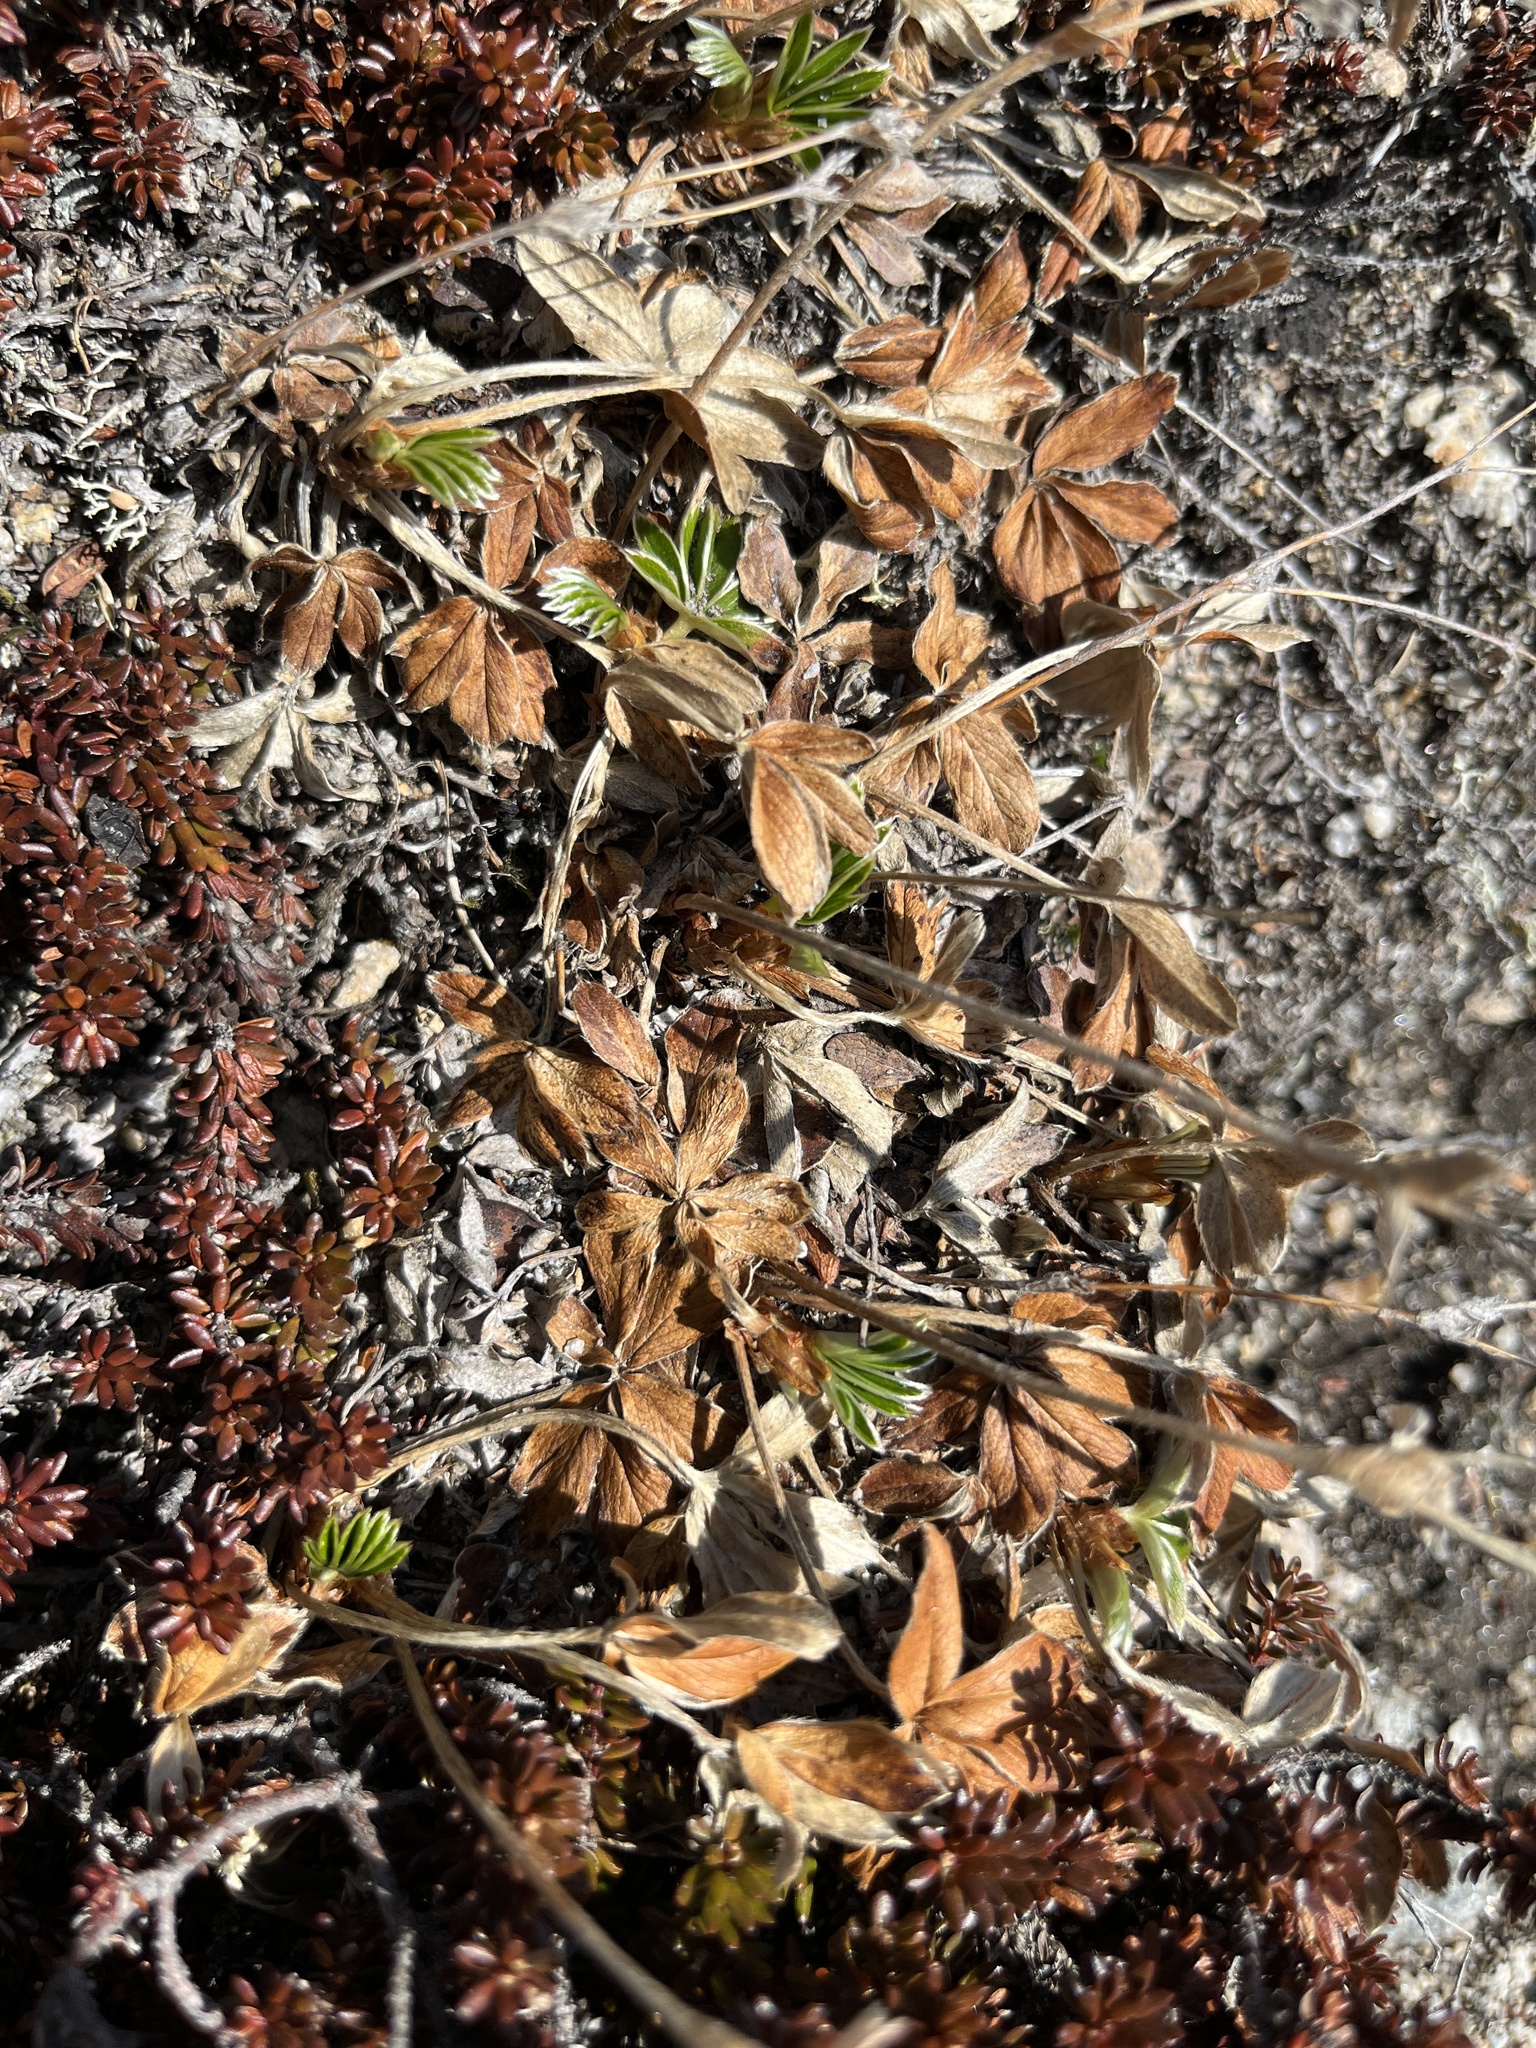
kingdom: Plantae
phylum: Tracheophyta
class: Magnoliopsida
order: Rosales
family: Rosaceae
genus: Alchemilla
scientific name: Alchemilla alpina
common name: Alpine lady's-mantle
